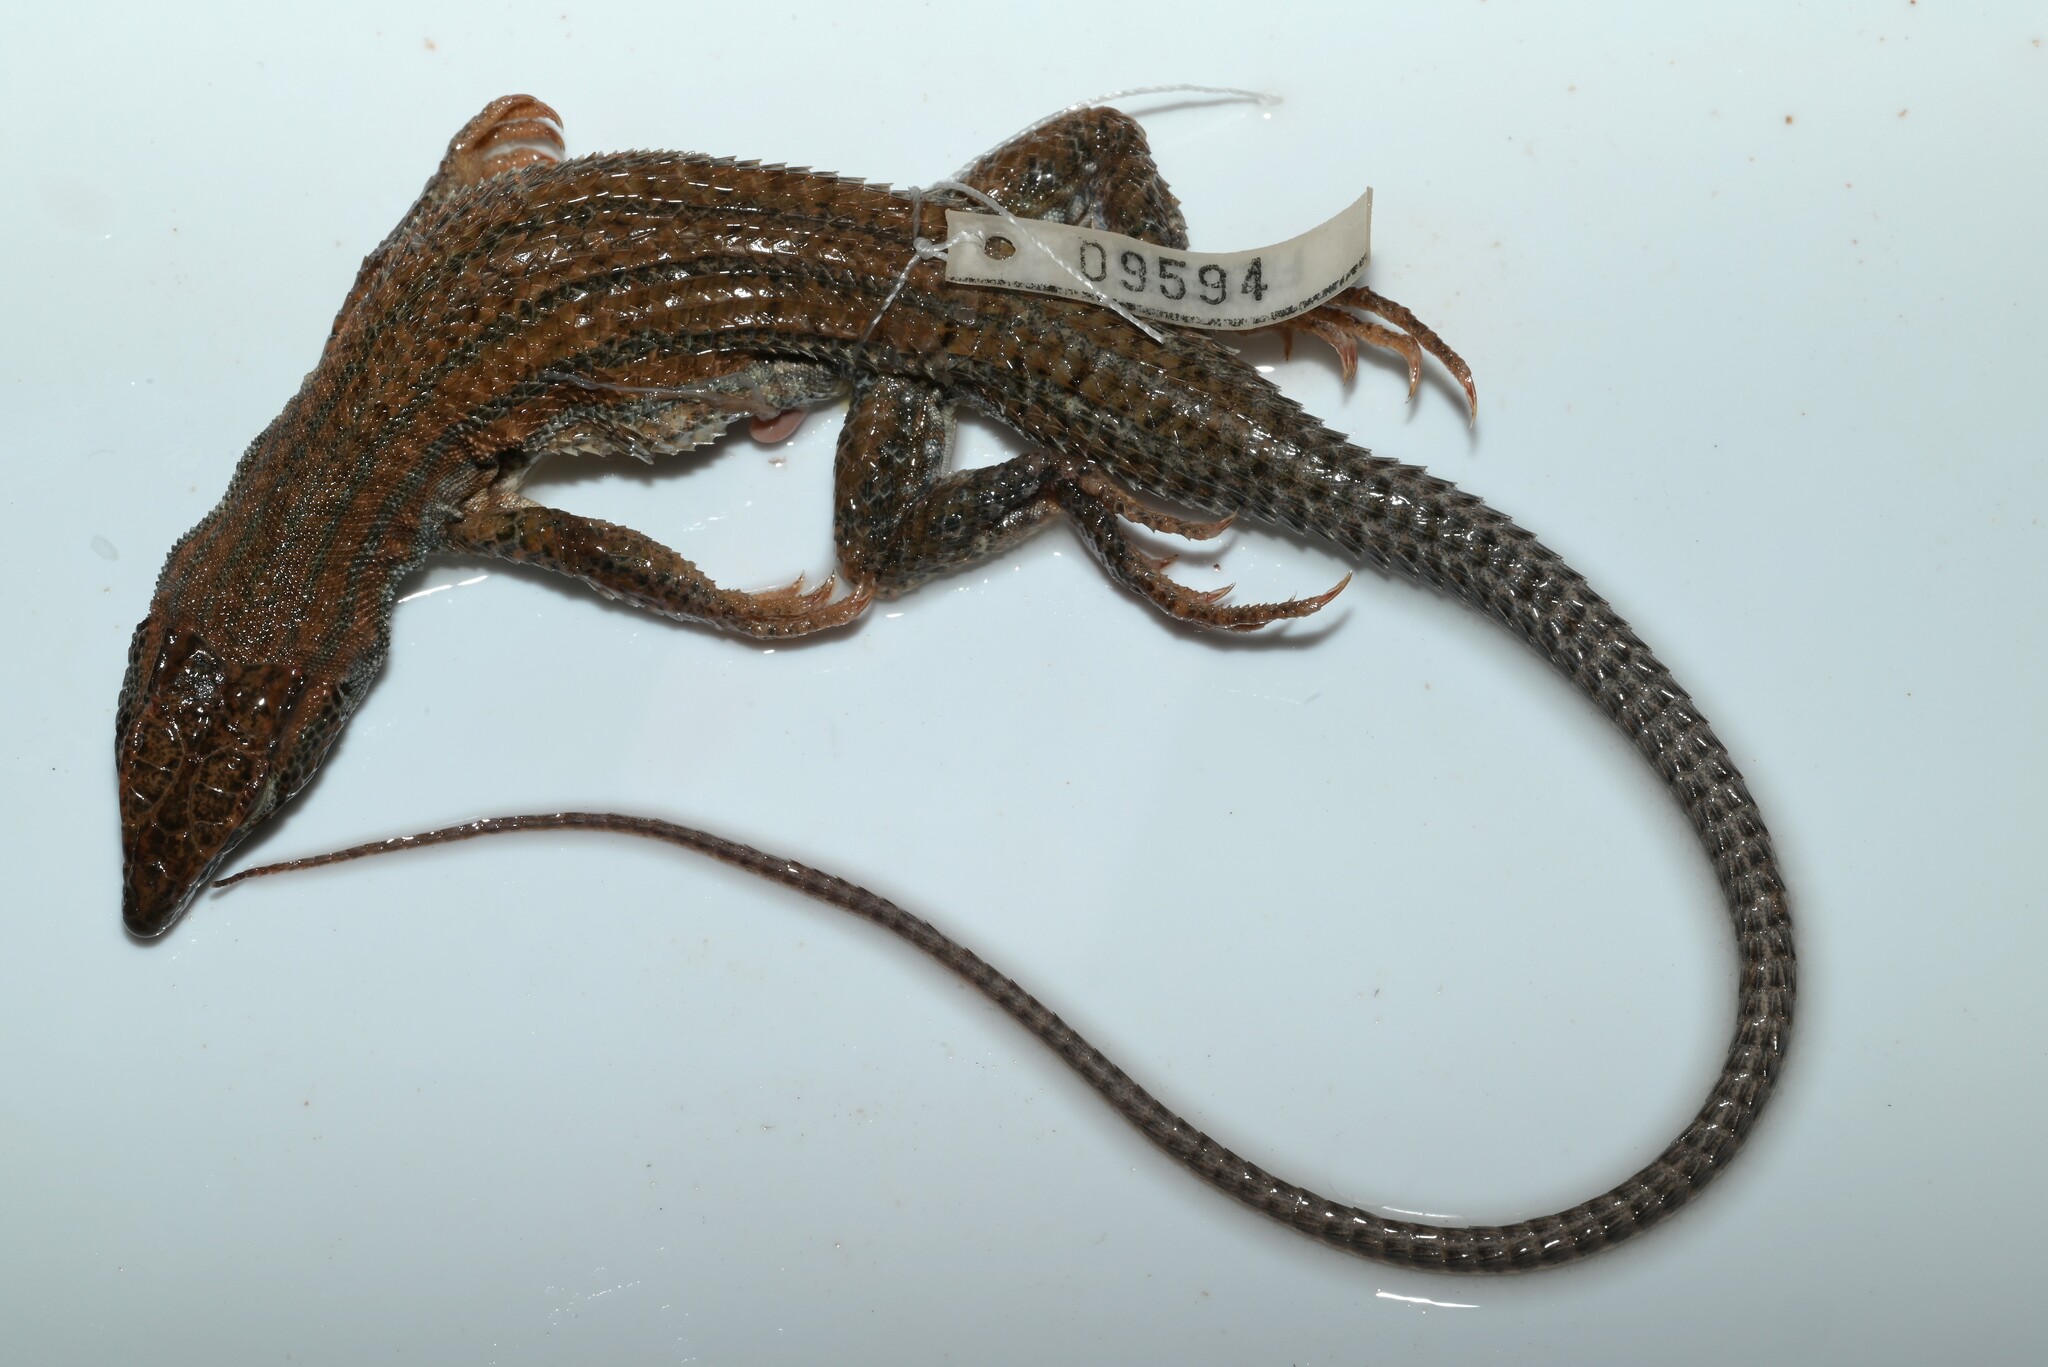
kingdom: Animalia
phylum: Chordata
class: Squamata
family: Lacertidae
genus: Acanthodactylus
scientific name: Acanthodactylus boskianus
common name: Bosc’s fringe-toed lizard
